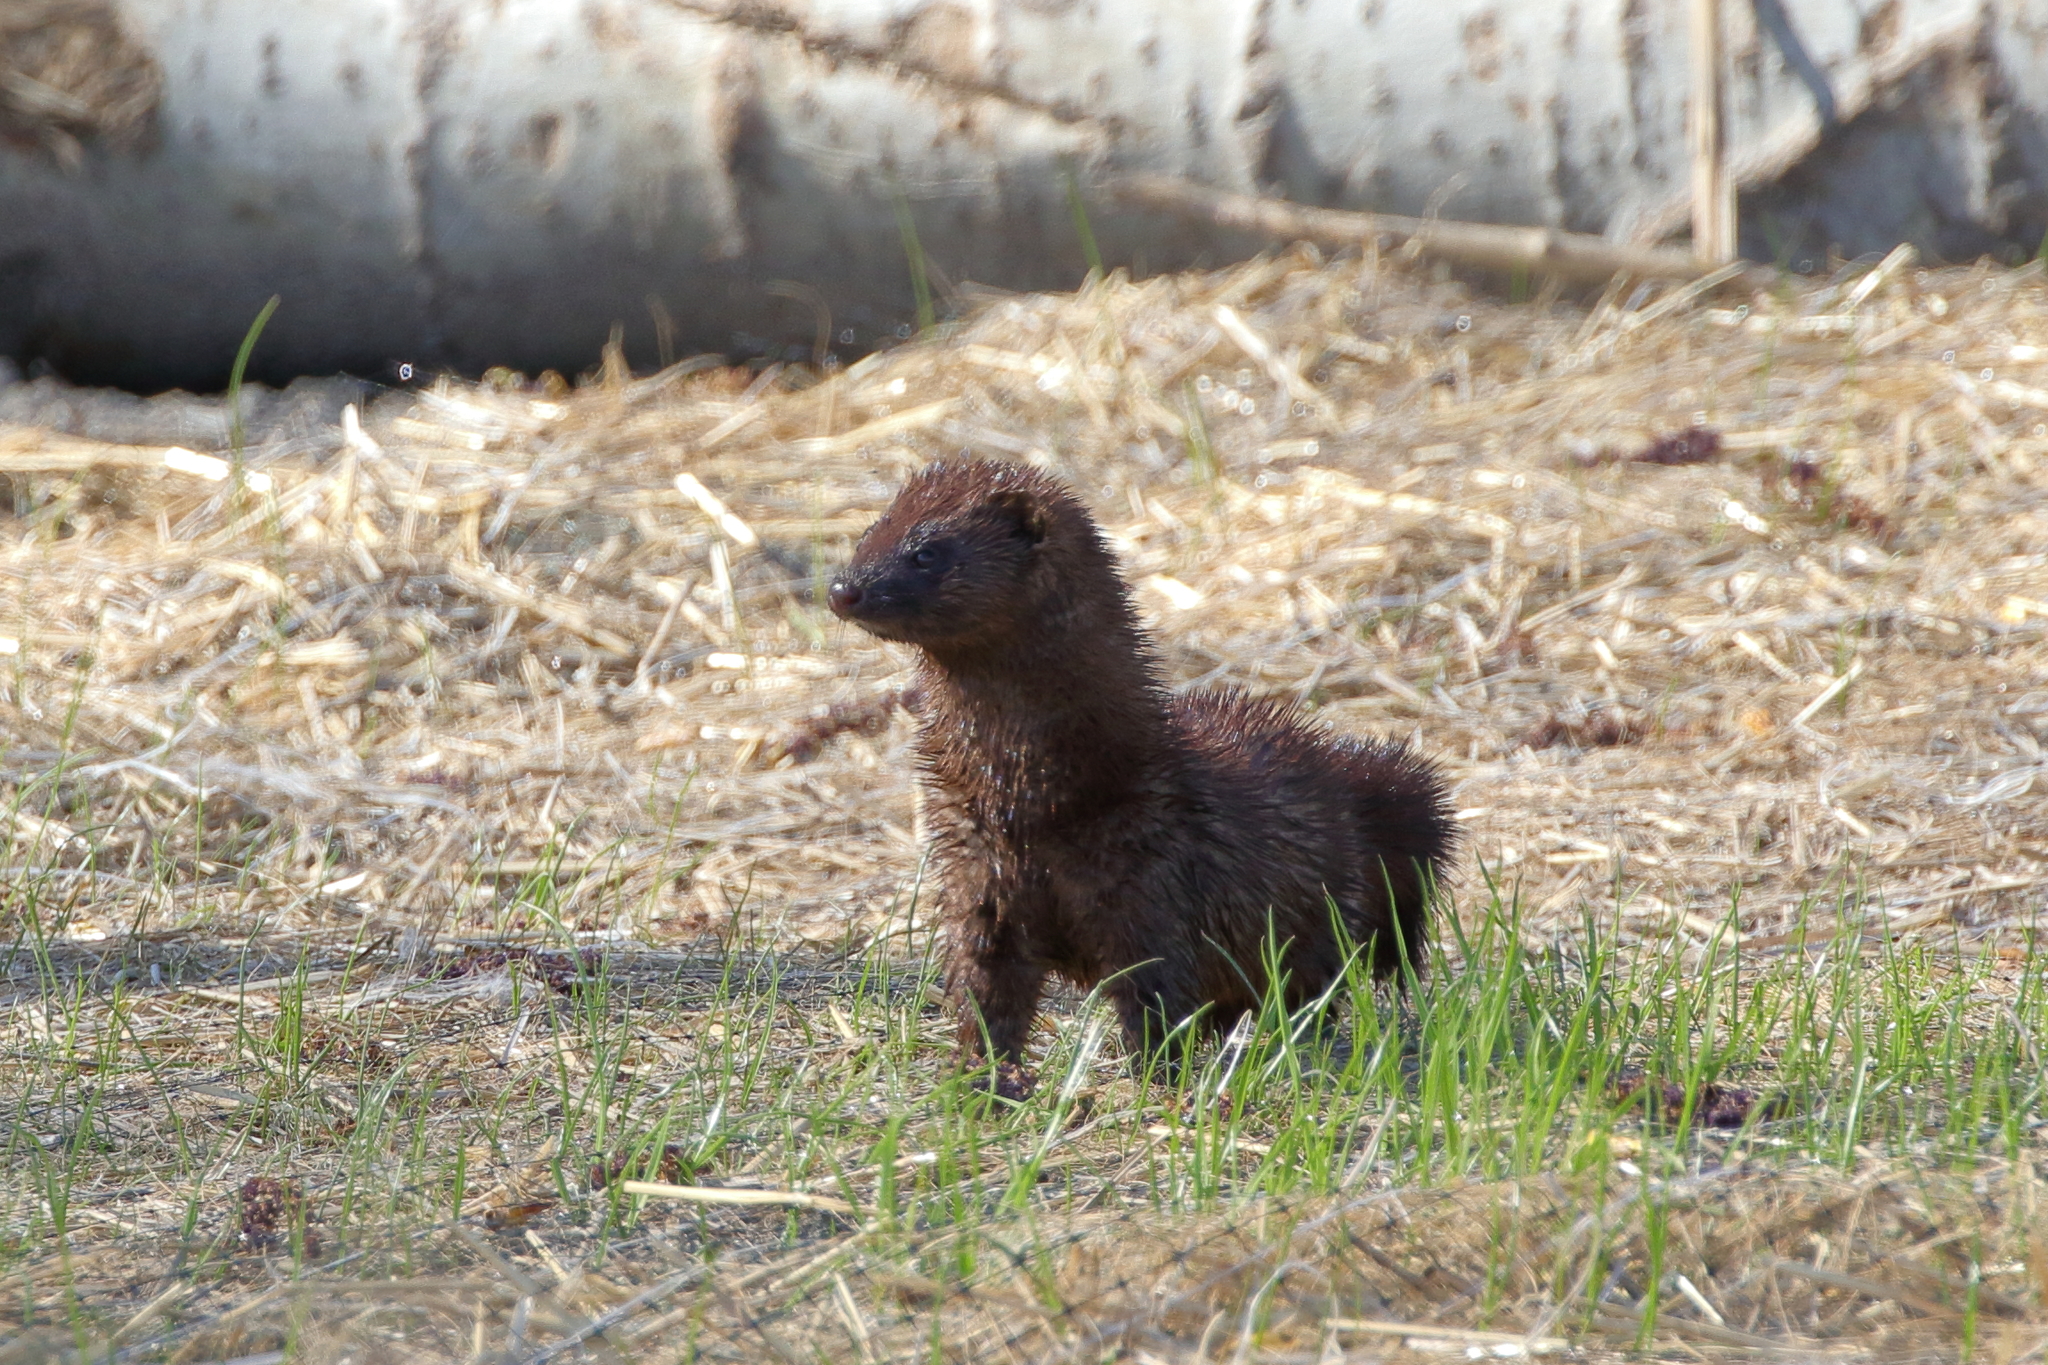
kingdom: Animalia
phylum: Chordata
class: Mammalia
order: Carnivora
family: Mustelidae
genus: Mustela
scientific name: Mustela
